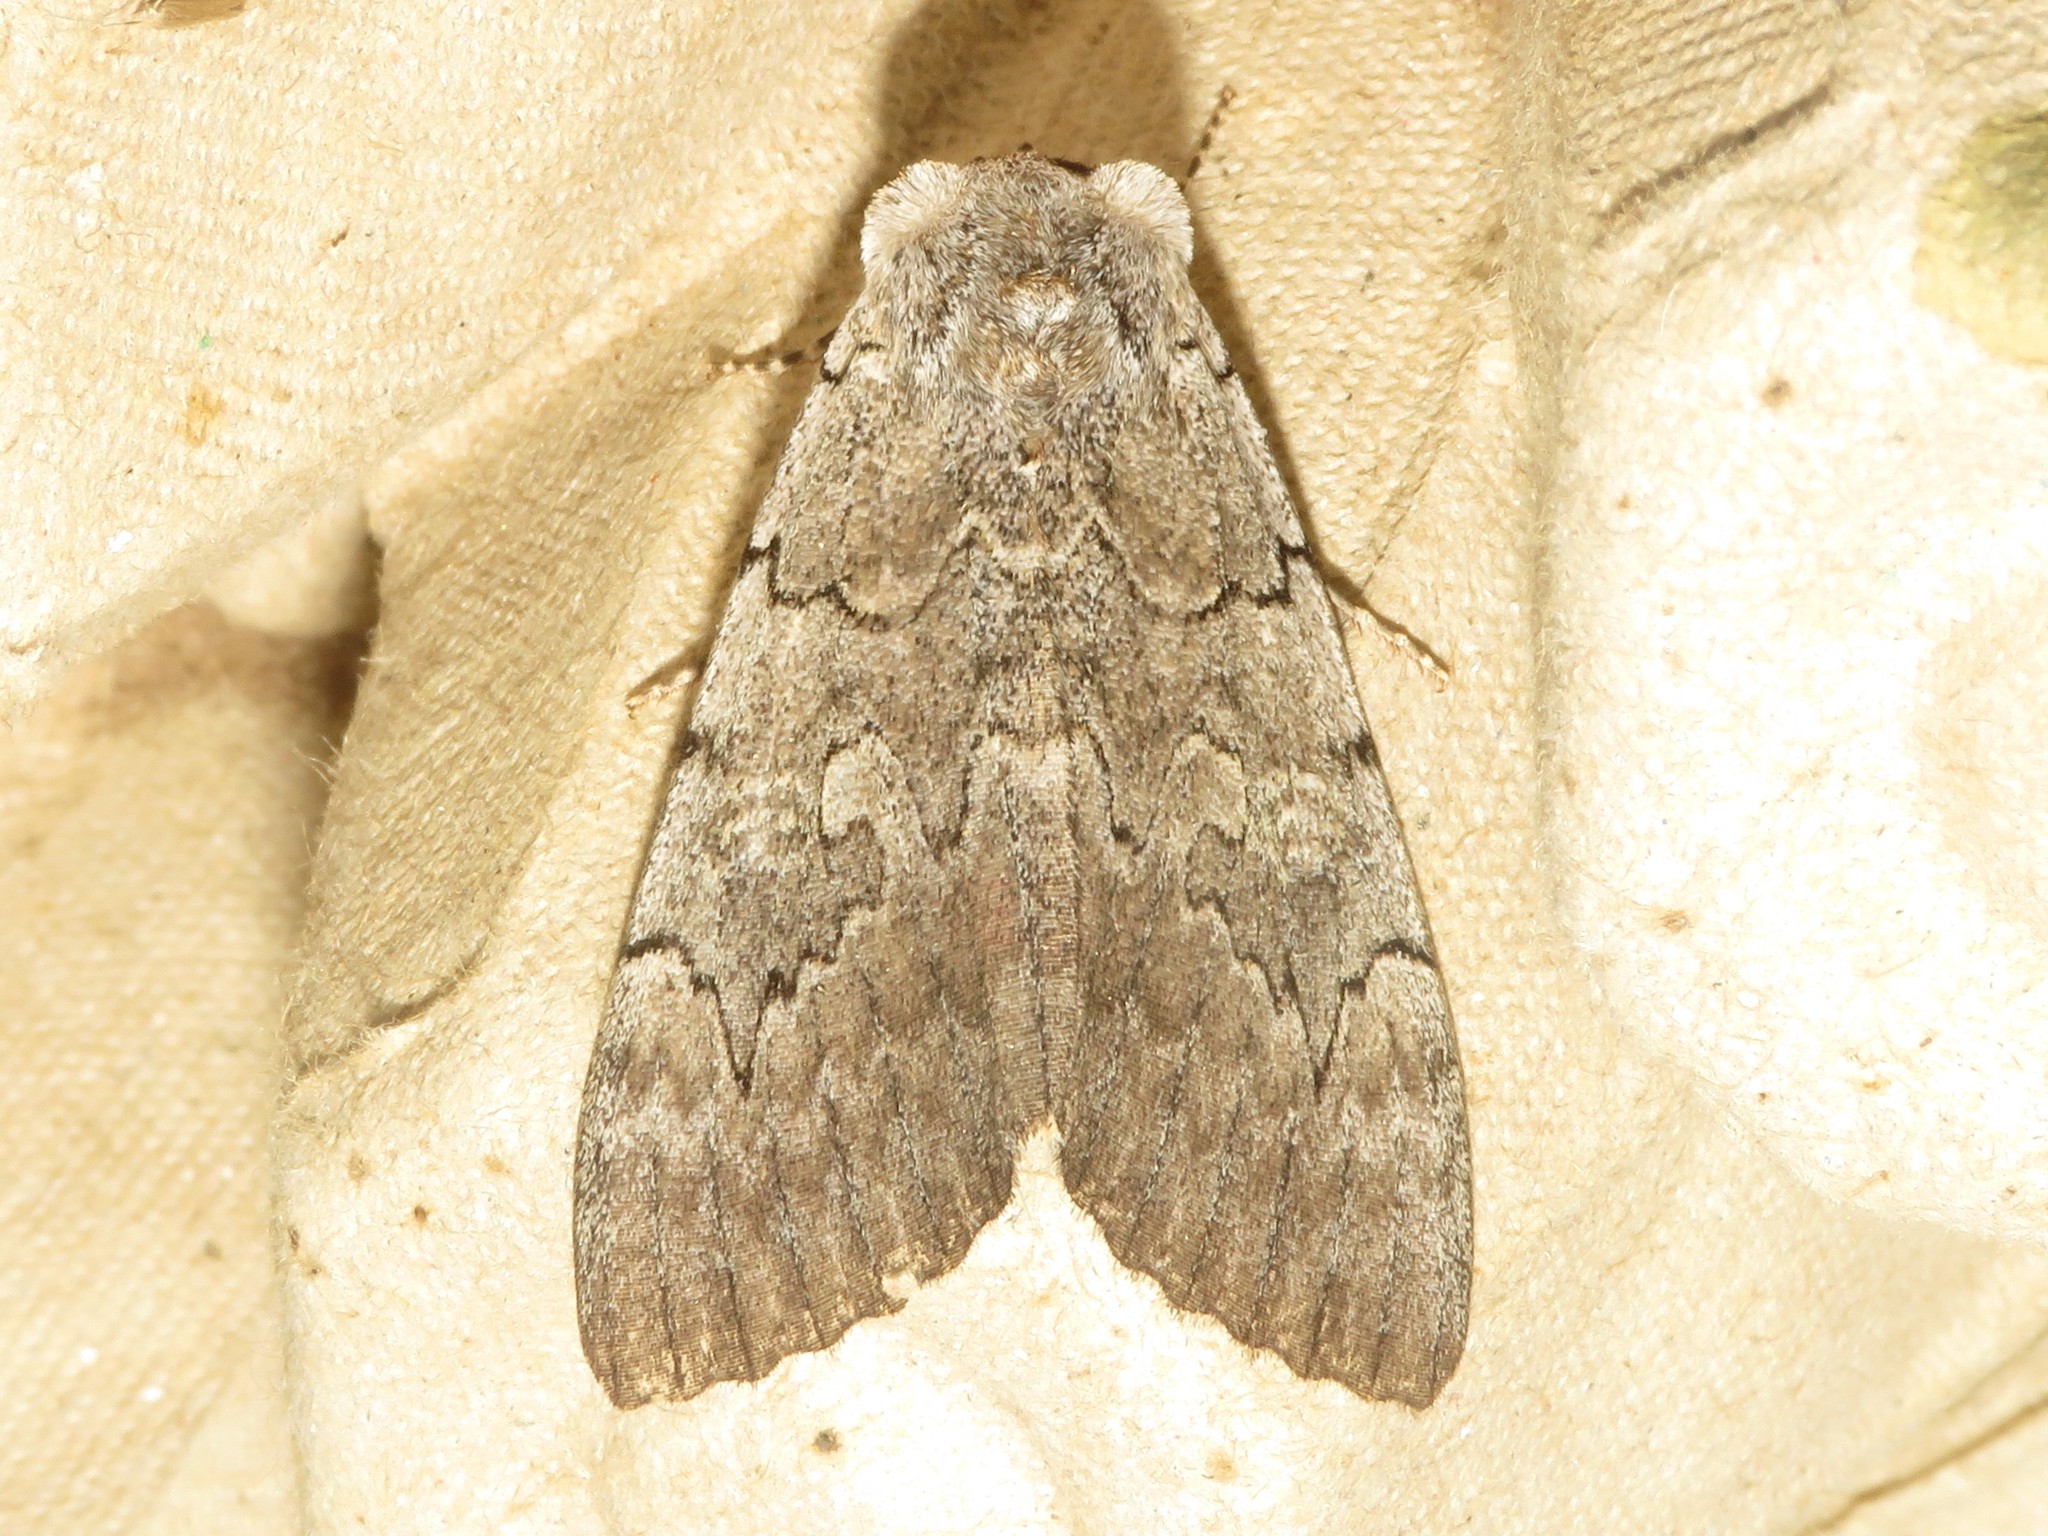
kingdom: Animalia
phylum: Arthropoda
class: Insecta
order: Lepidoptera
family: Erebidae
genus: Catocala
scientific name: Catocala concumbens
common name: Pink underwing
